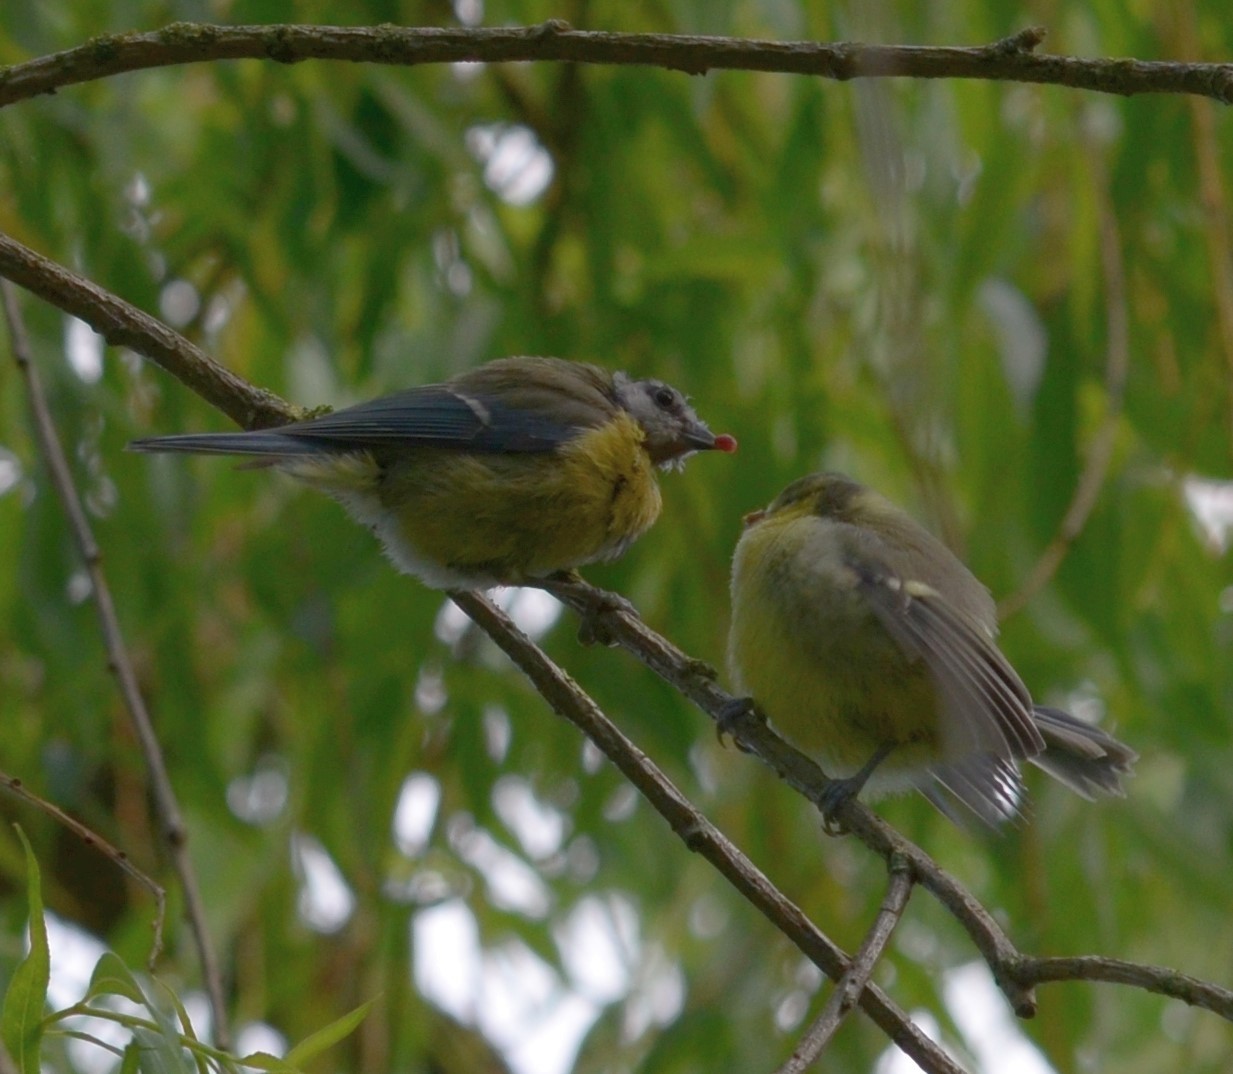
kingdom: Animalia
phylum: Chordata
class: Aves
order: Passeriformes
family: Paridae
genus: Cyanistes
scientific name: Cyanistes caeruleus
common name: Eurasian blue tit
